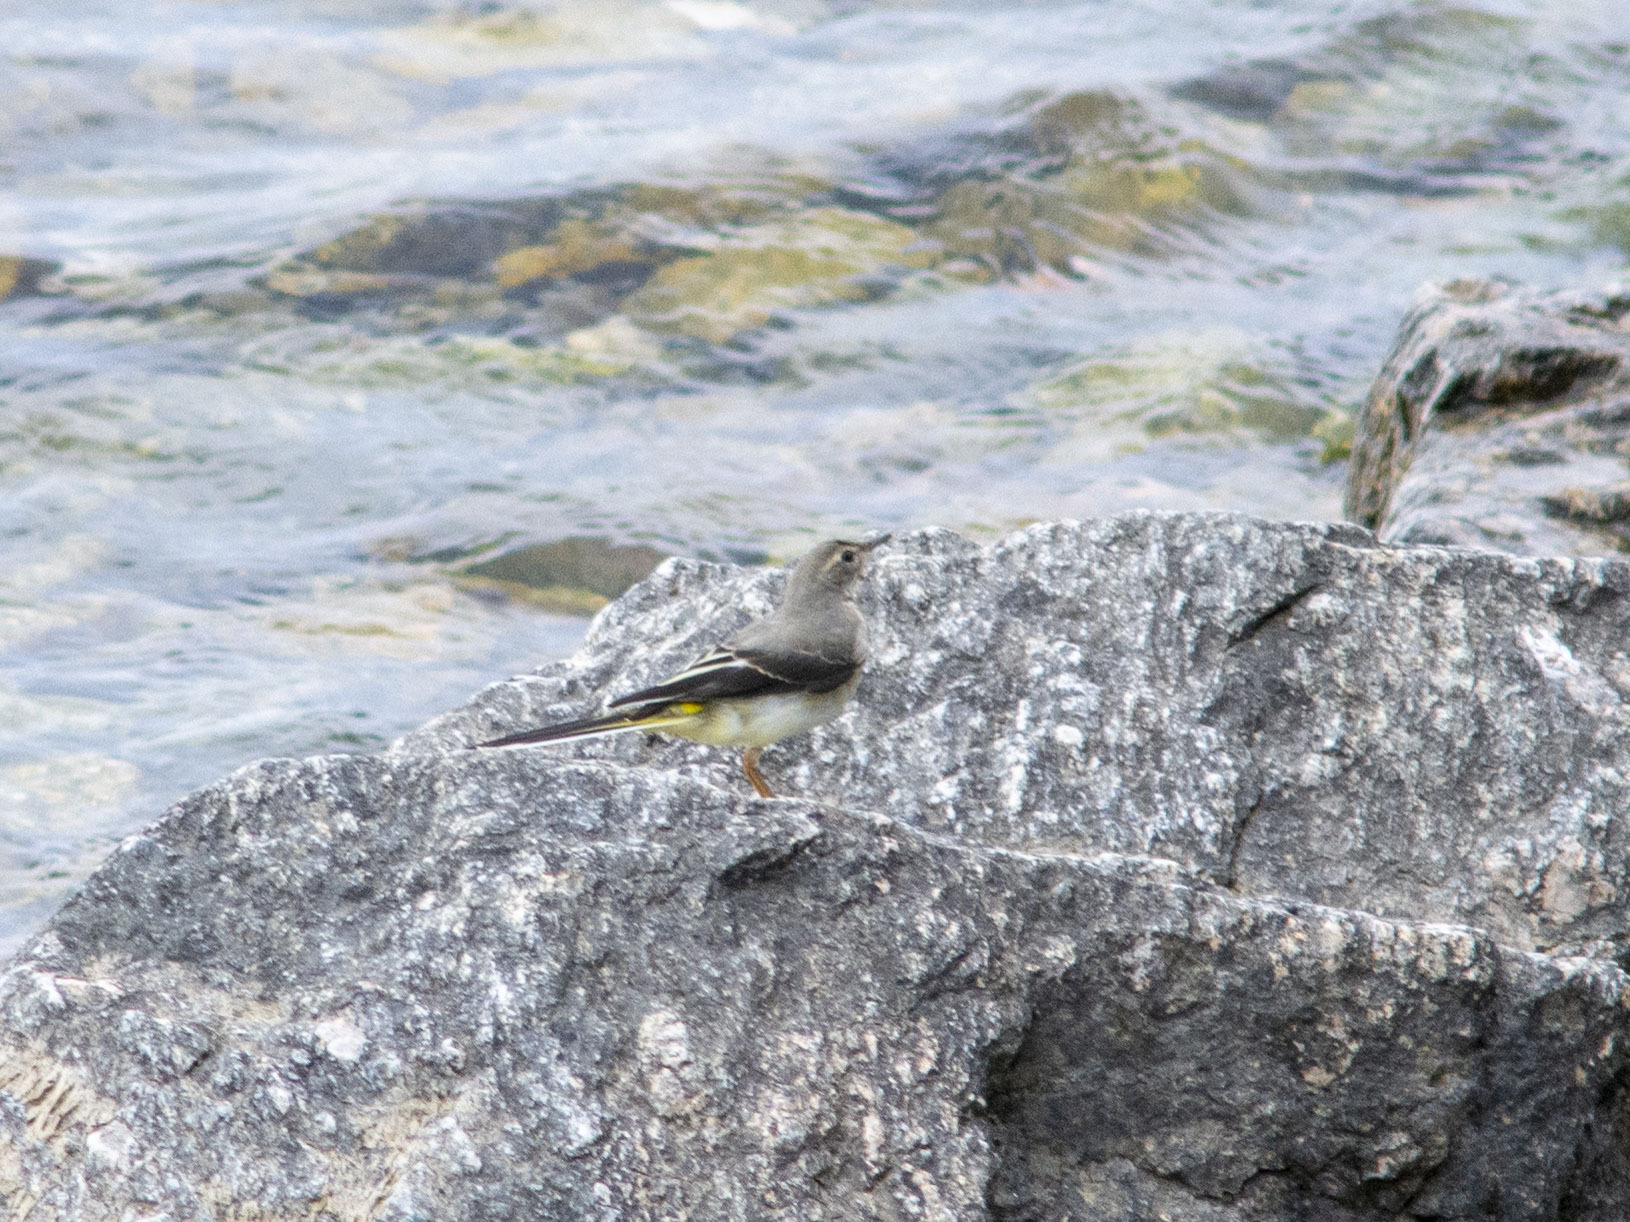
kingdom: Animalia
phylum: Chordata
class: Aves
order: Passeriformes
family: Motacillidae
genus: Motacilla
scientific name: Motacilla cinerea
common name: Grey wagtail
